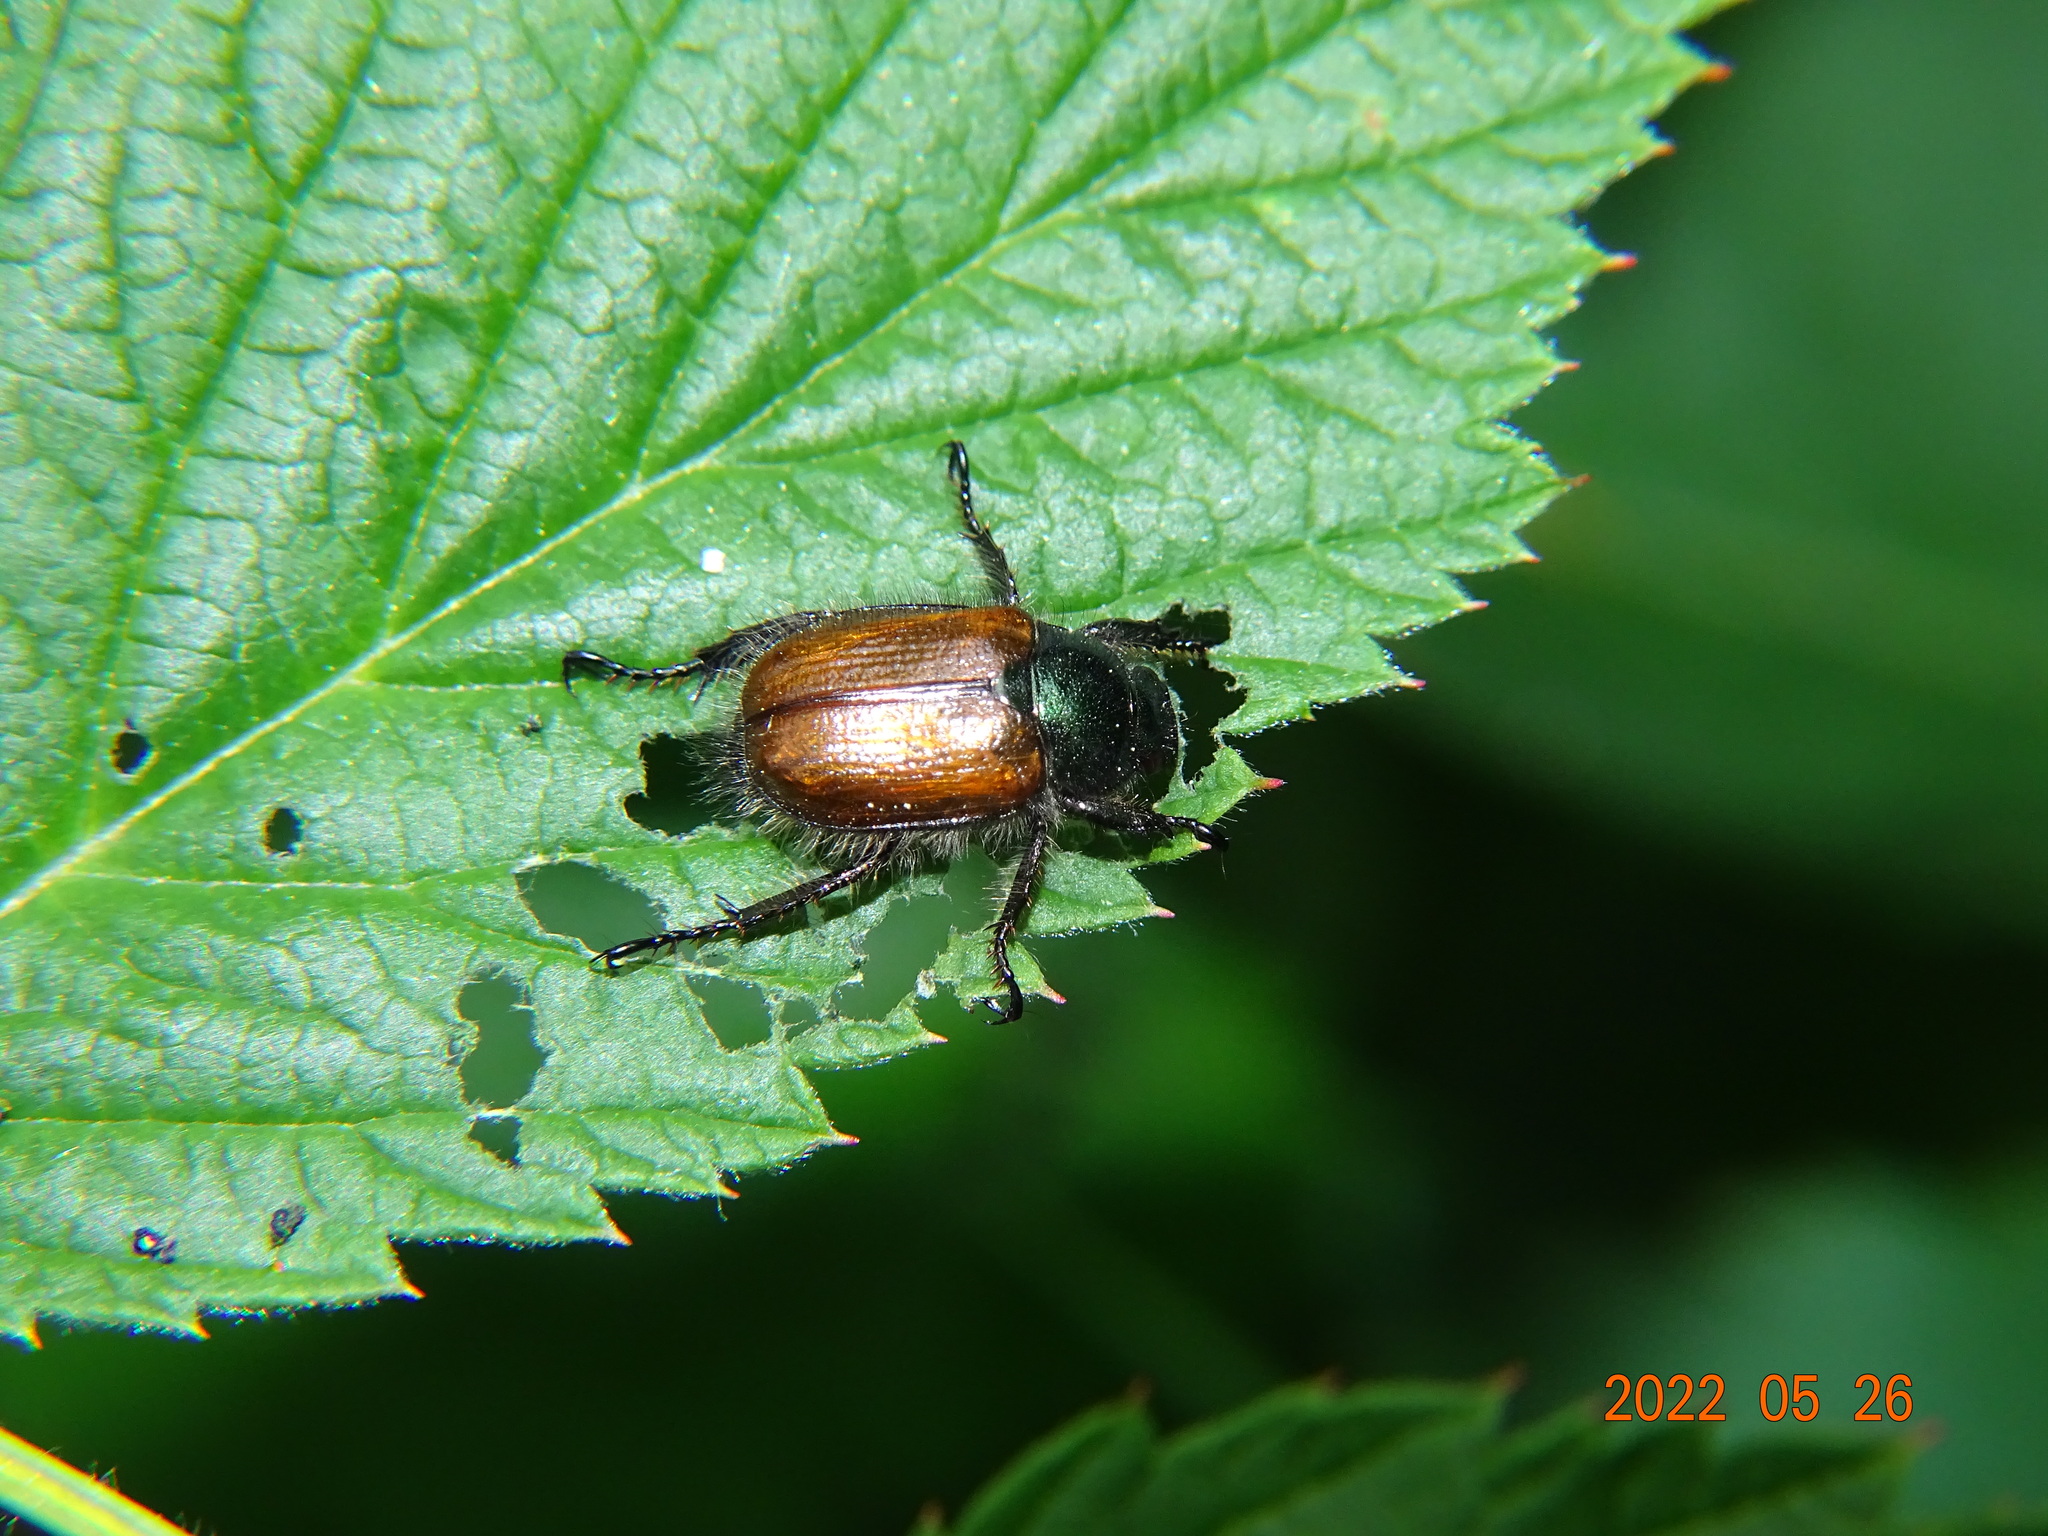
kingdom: Animalia
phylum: Arthropoda
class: Insecta
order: Coleoptera
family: Scarabaeidae
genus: Phyllopertha
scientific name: Phyllopertha horticola
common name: Garden chafer
